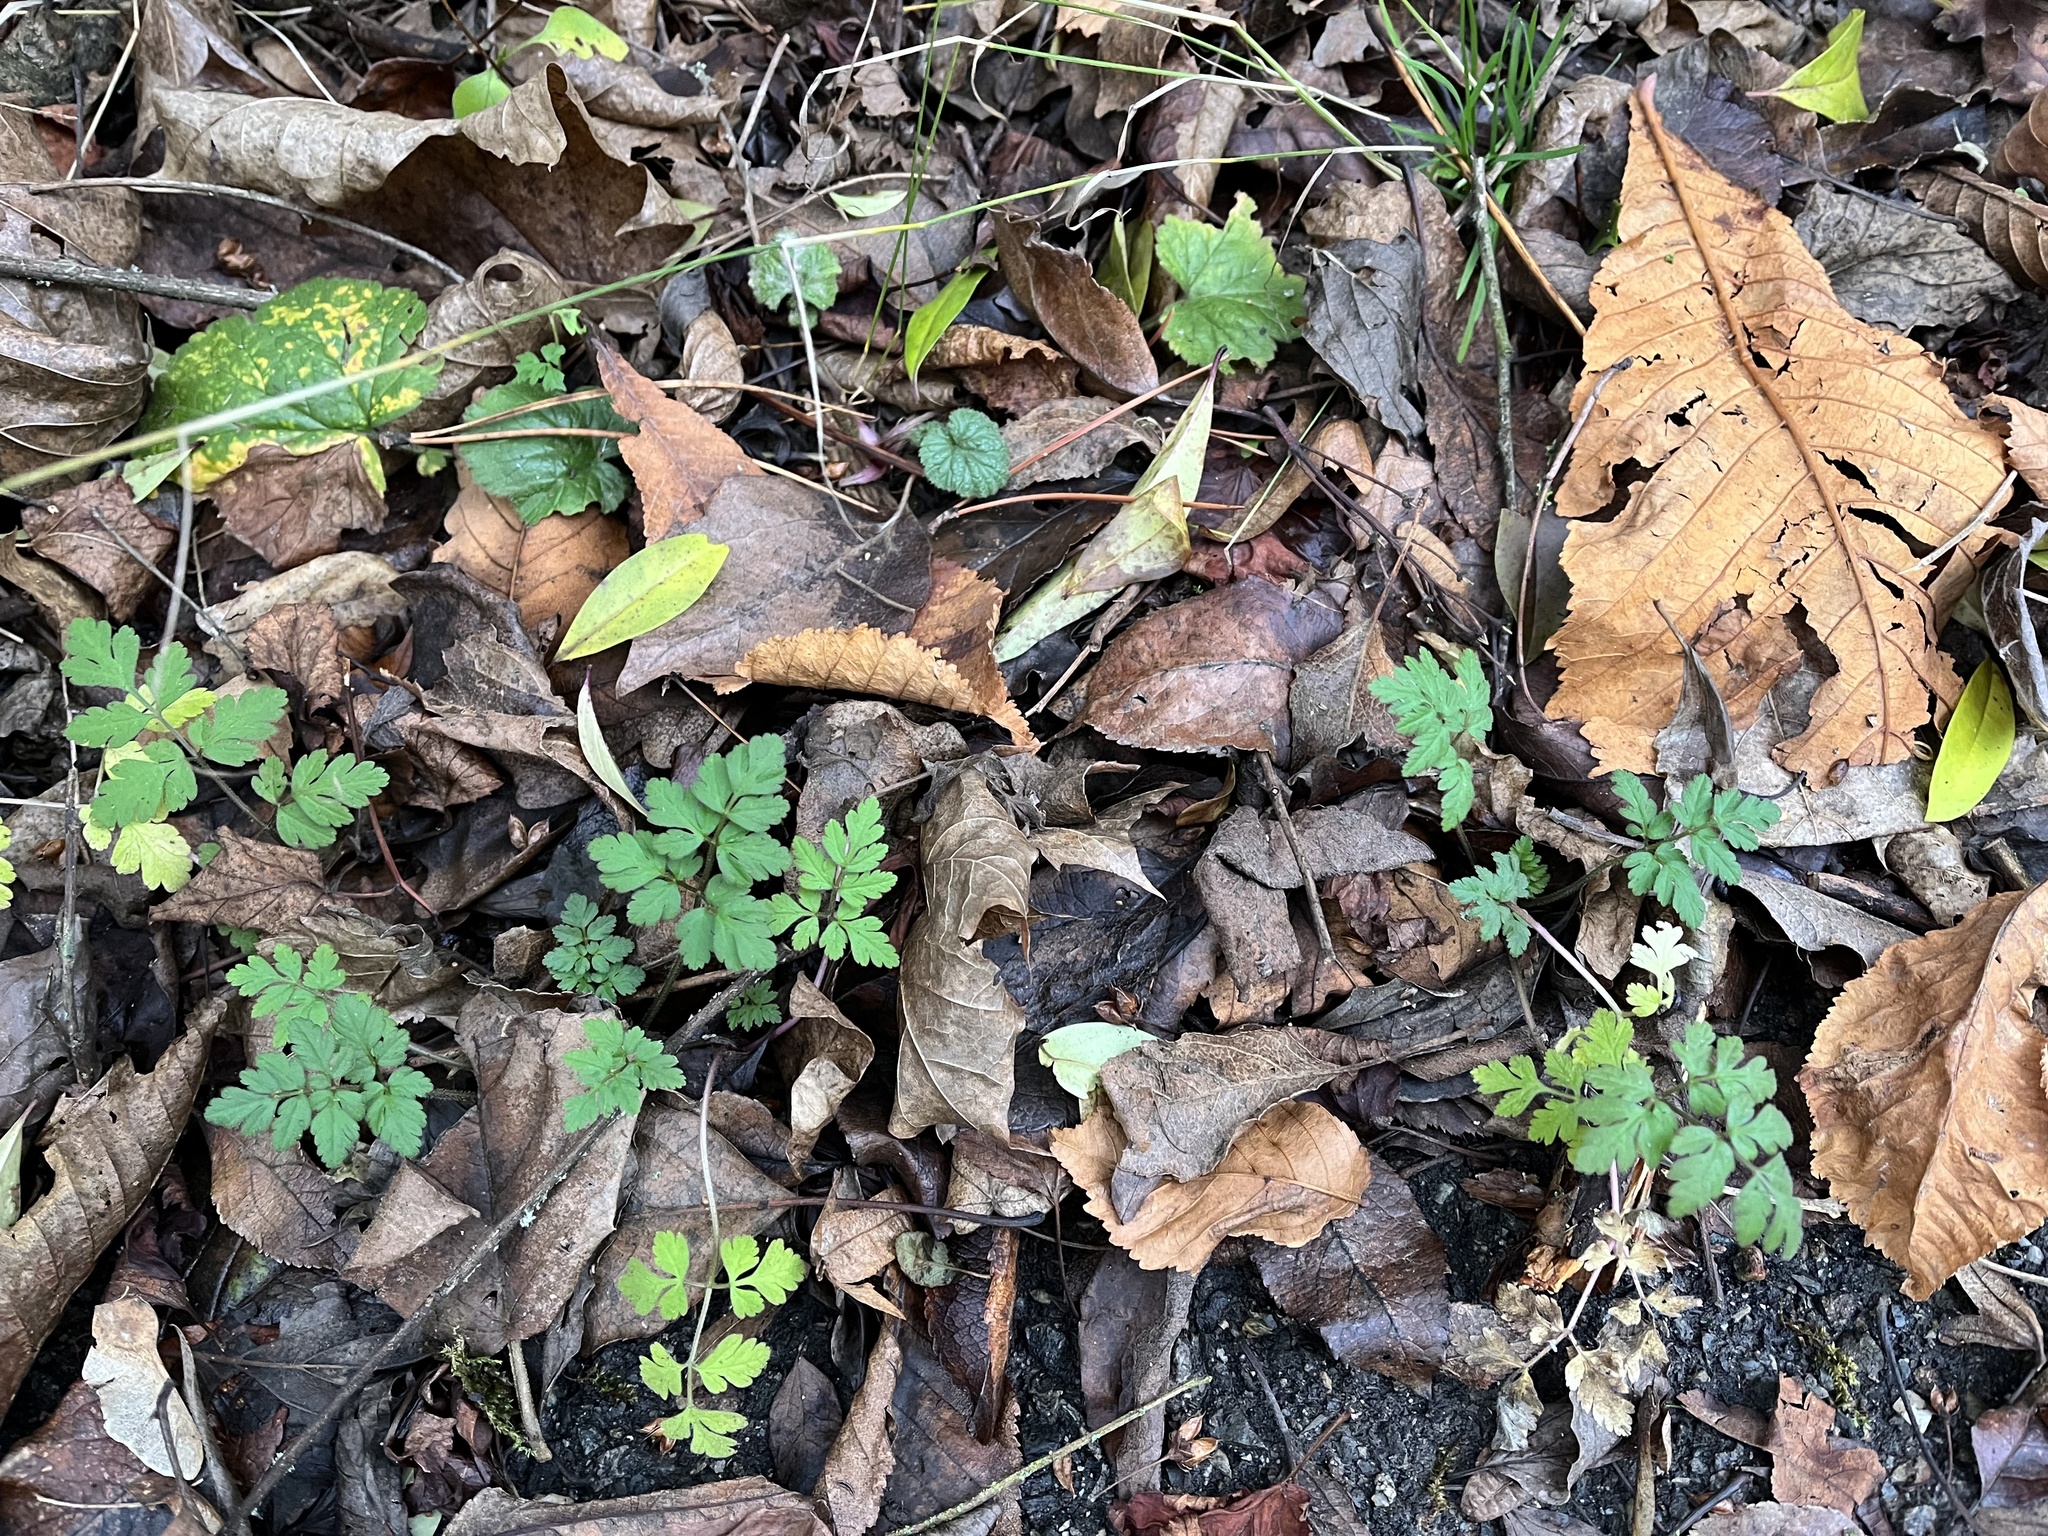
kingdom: Plantae
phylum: Tracheophyta
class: Magnoliopsida
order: Geraniales
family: Geraniaceae
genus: Geranium
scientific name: Geranium robertianum
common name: Herb-robert
